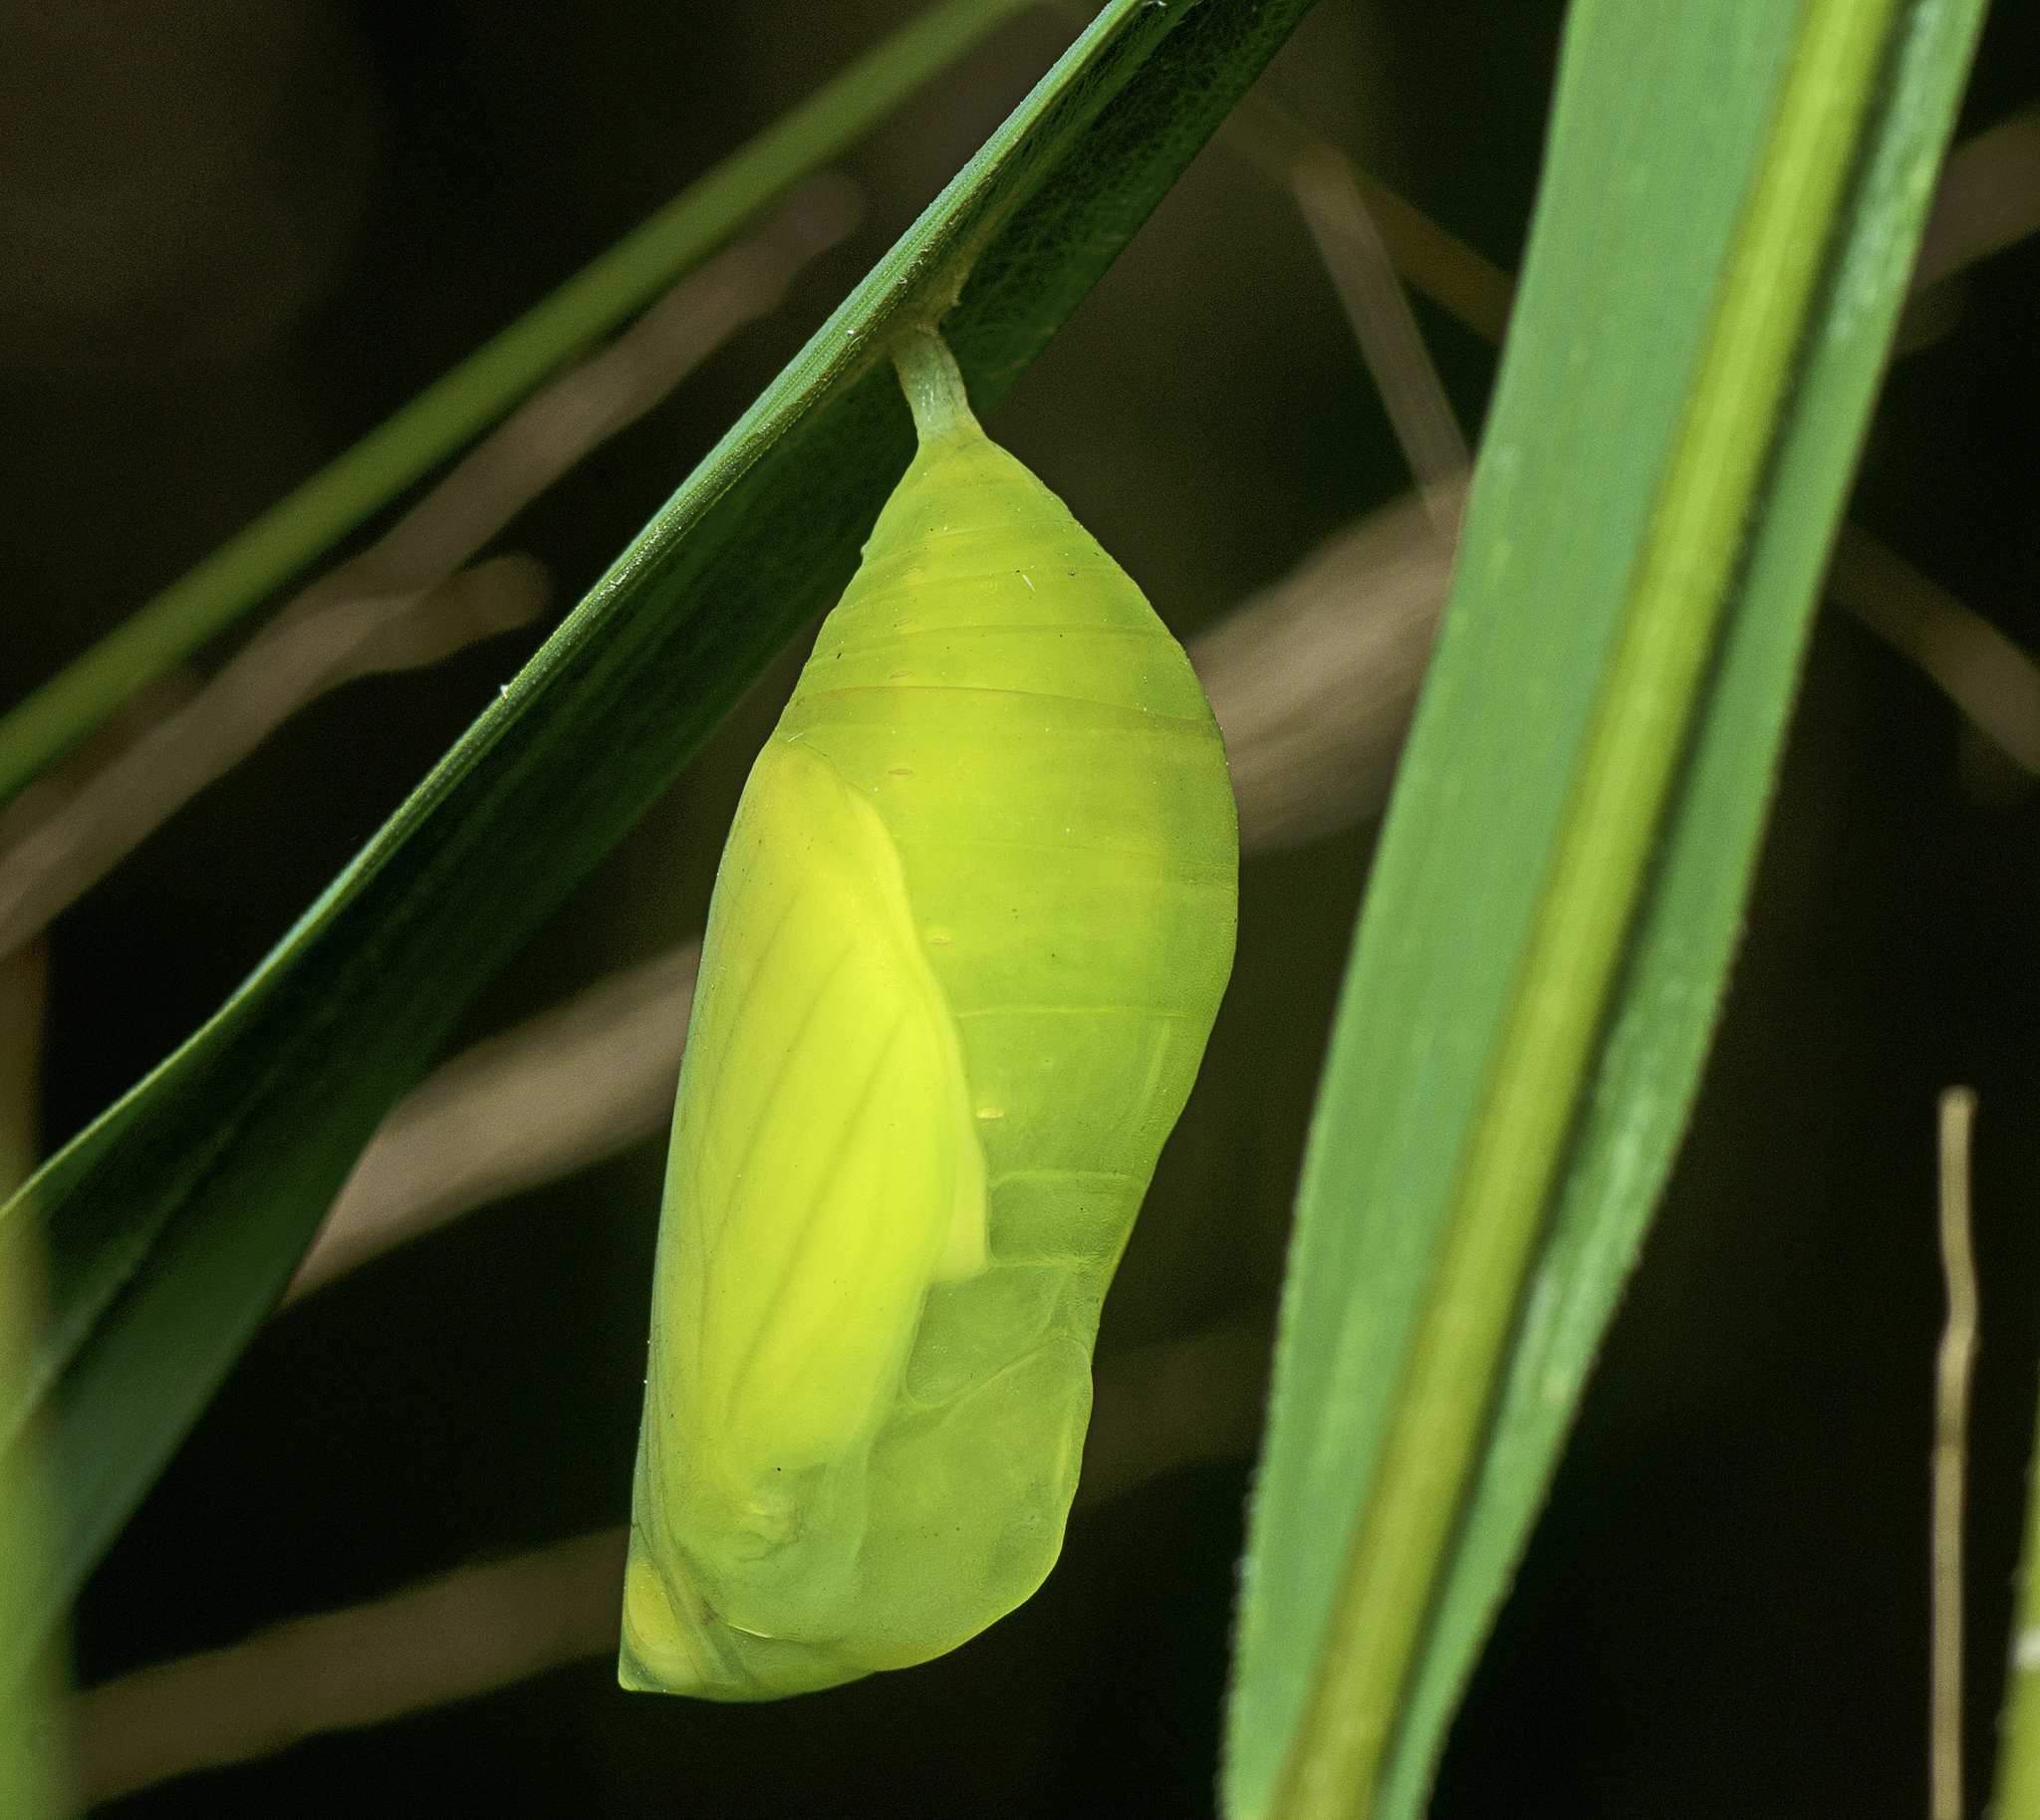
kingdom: Animalia
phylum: Arthropoda
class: Insecta
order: Lepidoptera
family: Nymphalidae
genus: Melanitis
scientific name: Melanitis leda
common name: Twilight brown
